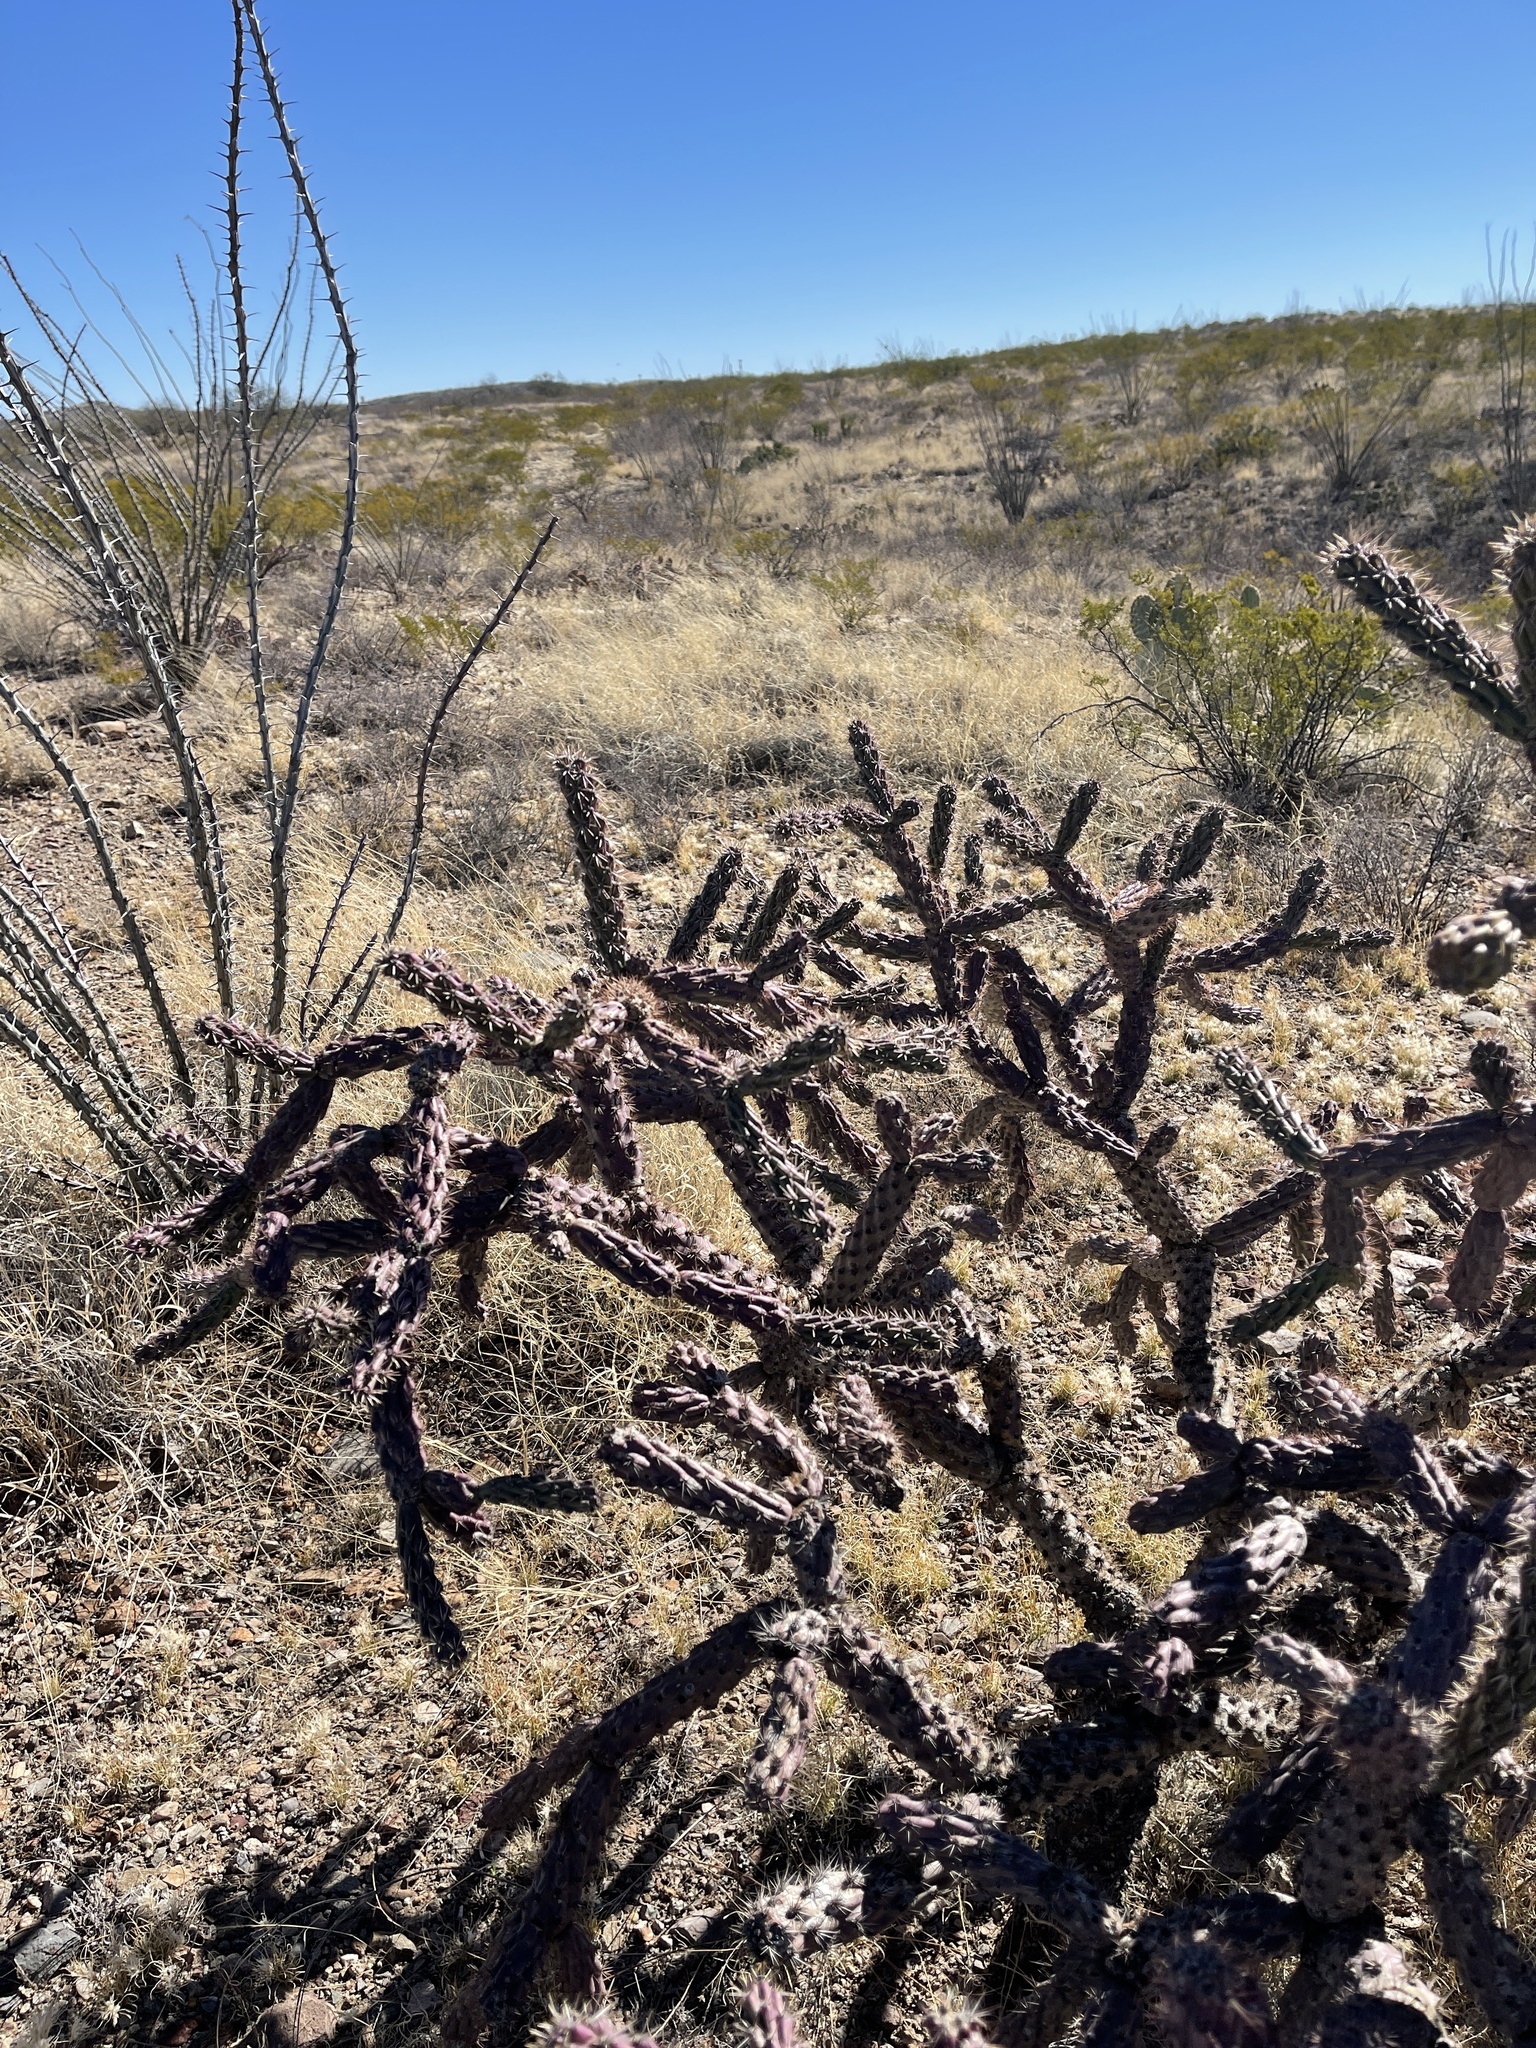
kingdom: Plantae
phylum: Tracheophyta
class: Magnoliopsida
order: Caryophyllales
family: Cactaceae
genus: Cylindropuntia
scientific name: Cylindropuntia thurberi
